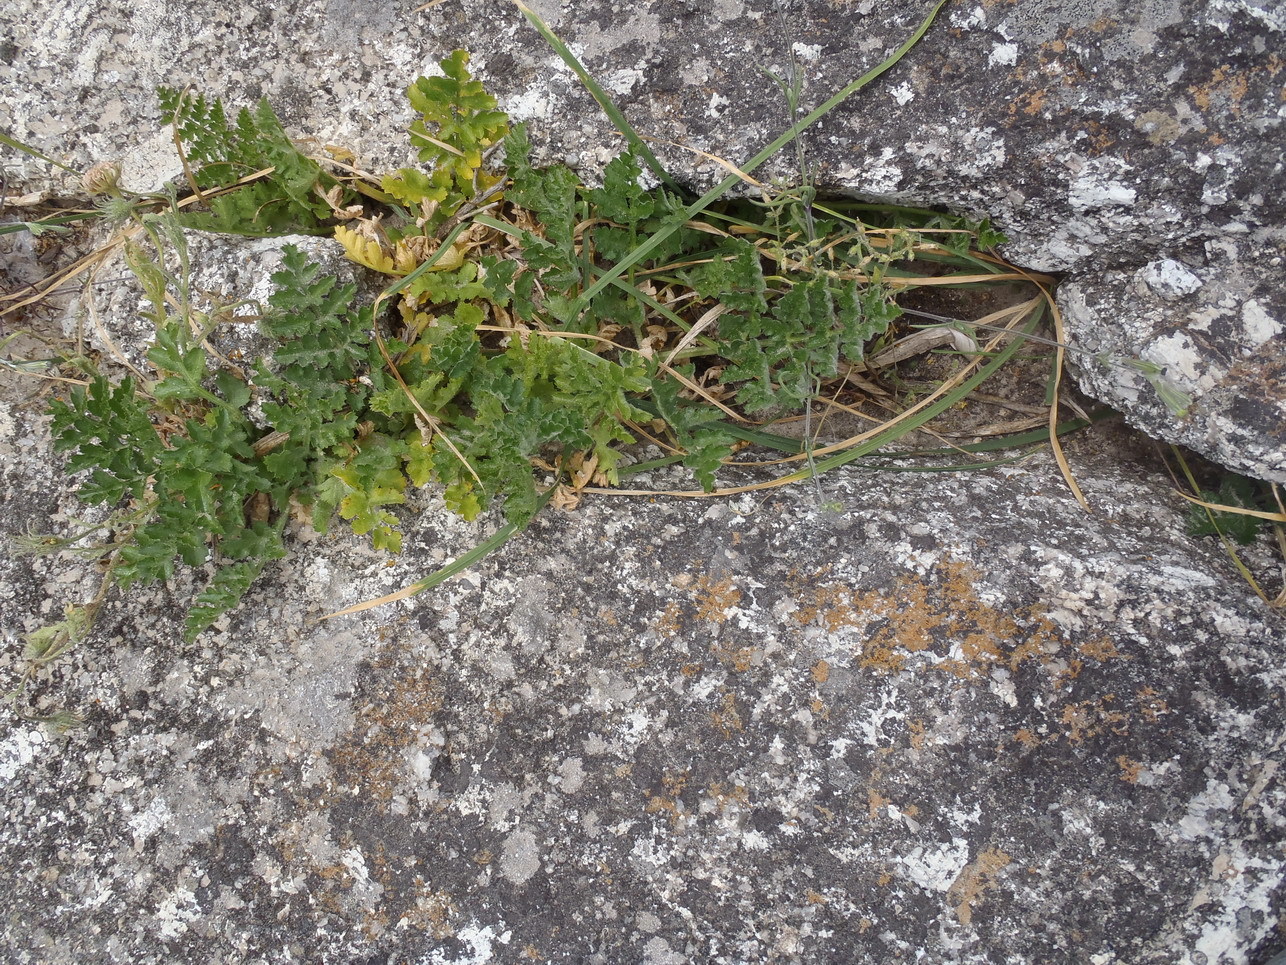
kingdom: Plantae
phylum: Tracheophyta
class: Magnoliopsida
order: Apiales
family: Apiaceae
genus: Annesorhiza
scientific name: Annesorhiza grandiflora
